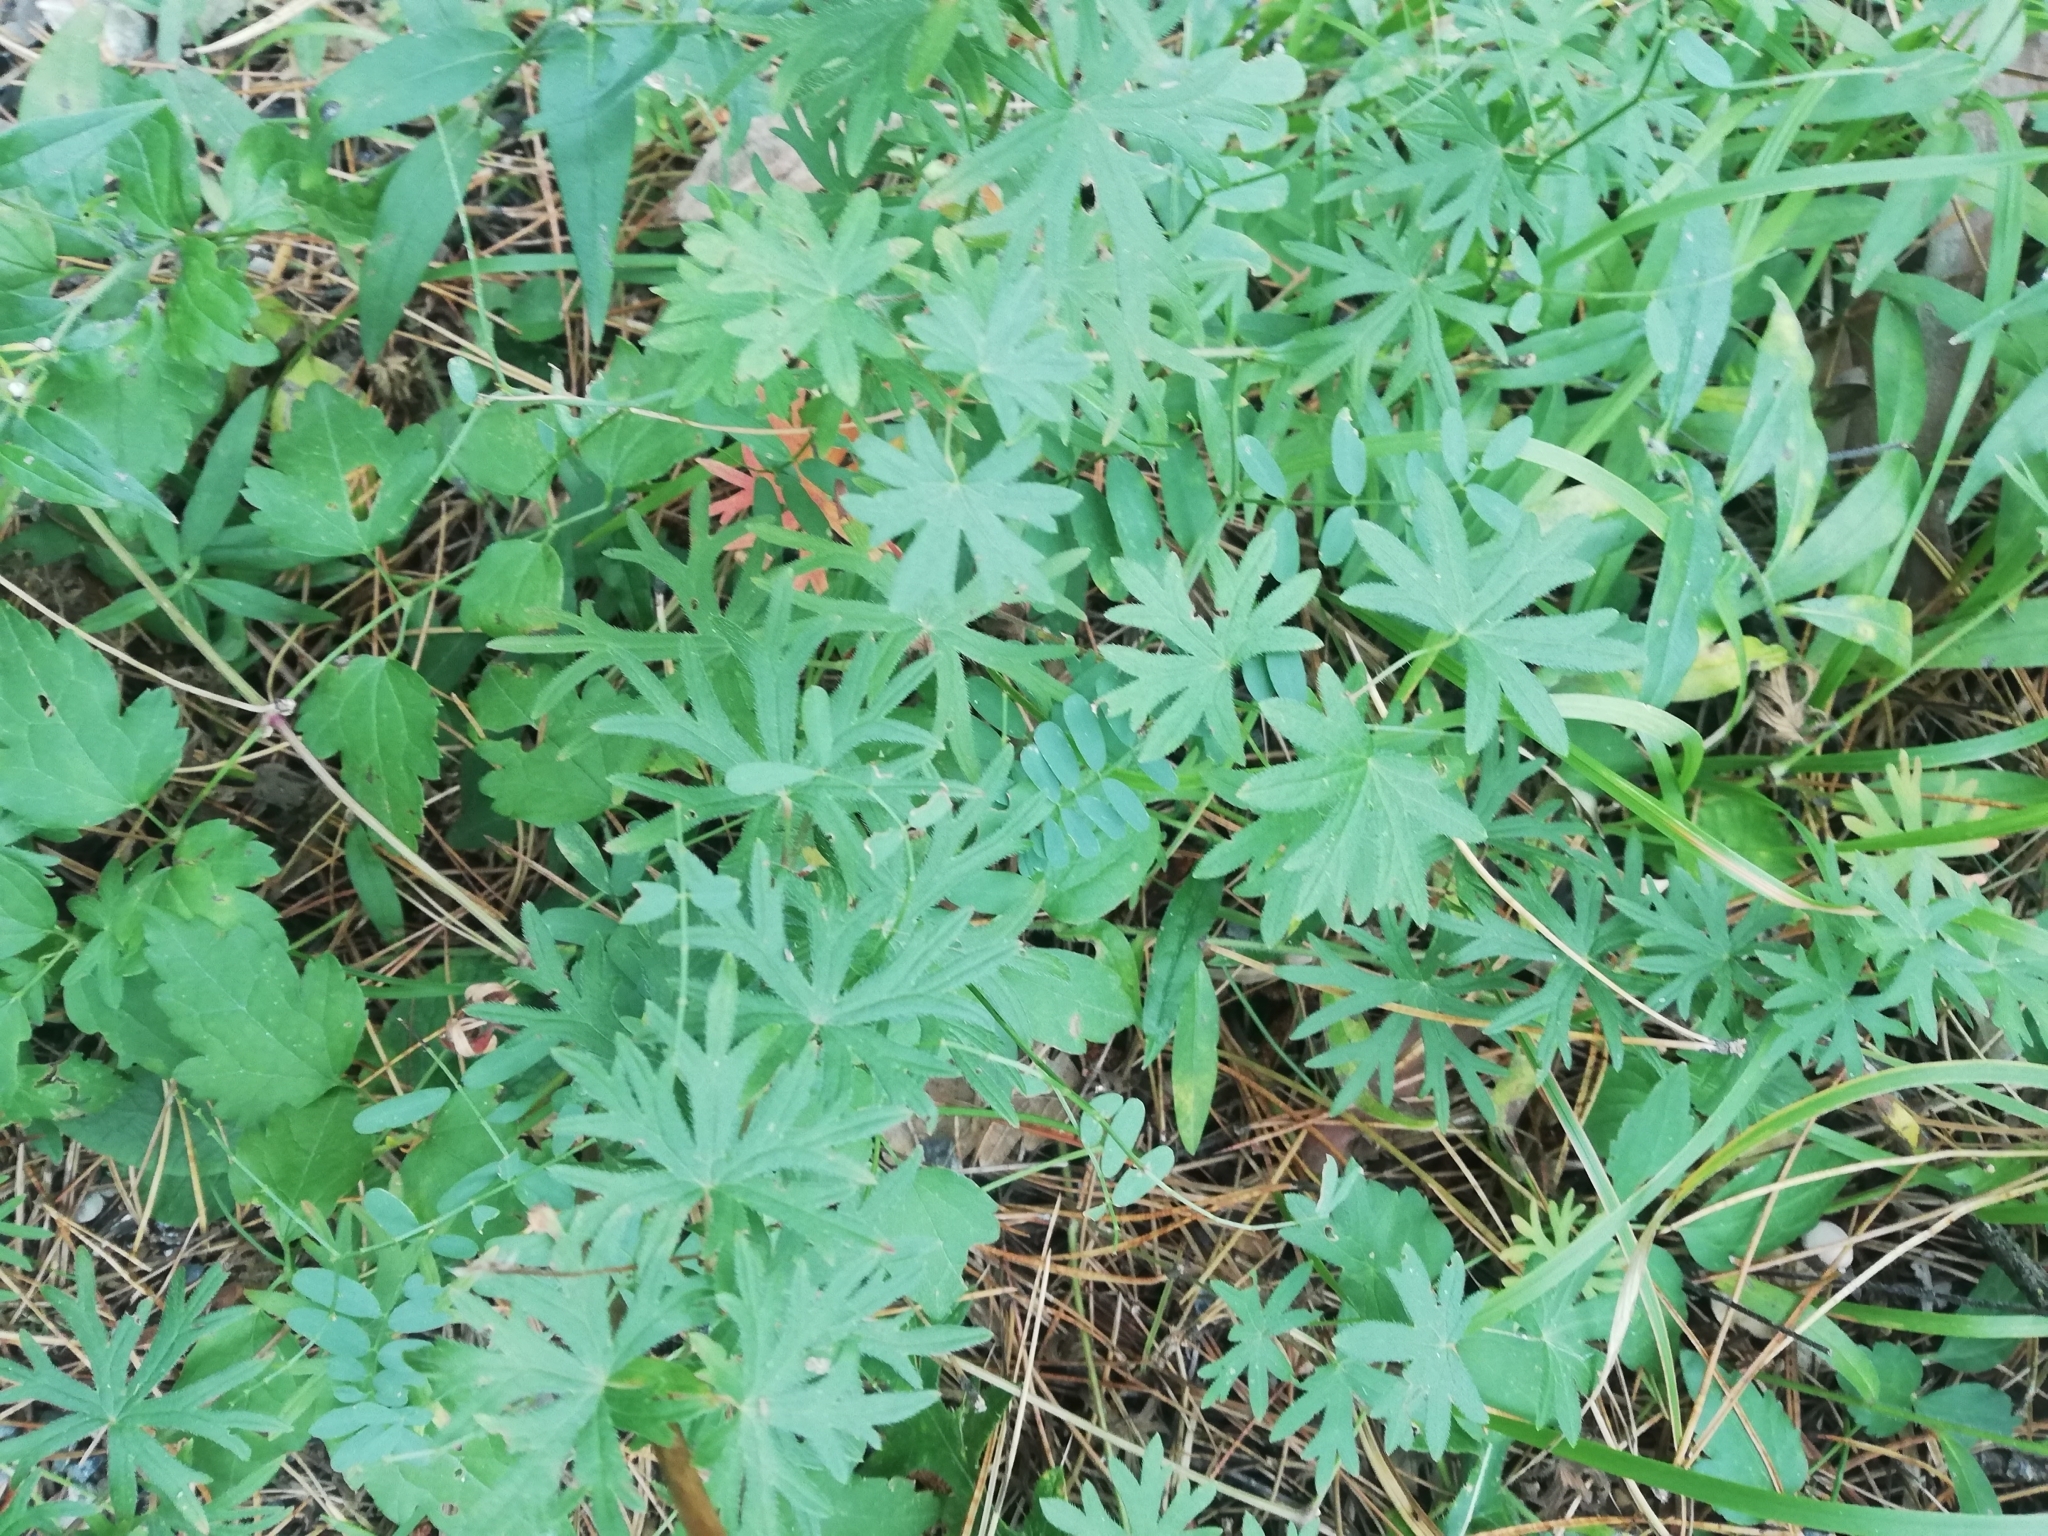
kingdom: Plantae
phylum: Tracheophyta
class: Magnoliopsida
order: Geraniales
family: Geraniaceae
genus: Geranium
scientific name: Geranium sanguineum
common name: Bloody crane's-bill
